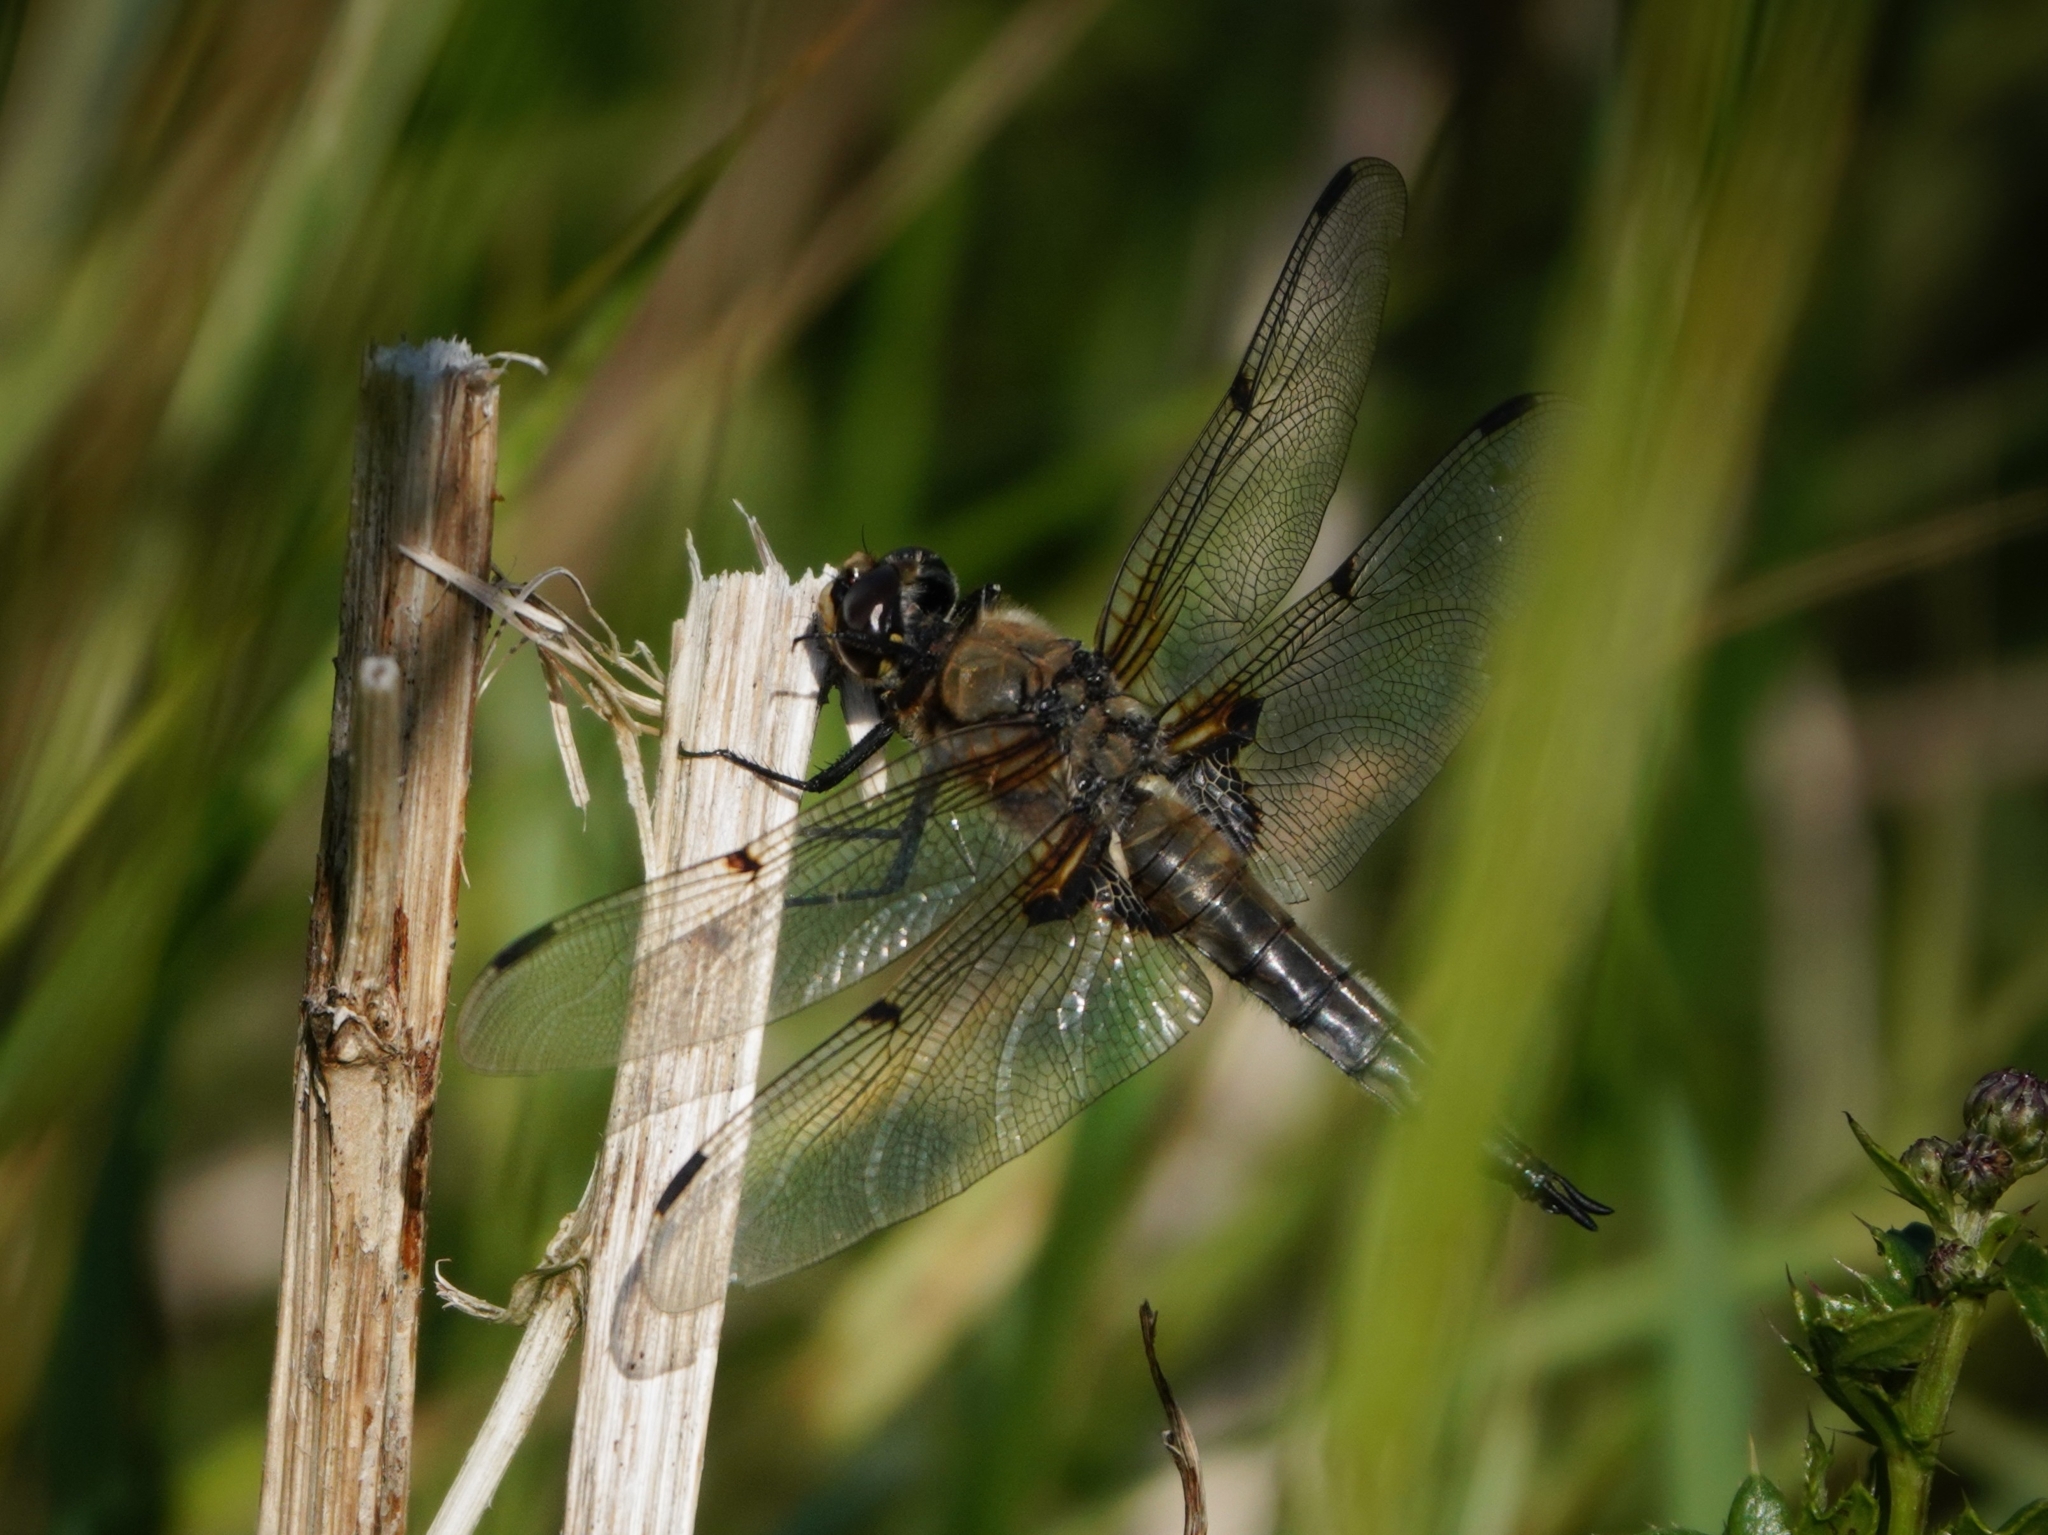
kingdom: Animalia
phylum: Arthropoda
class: Insecta
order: Odonata
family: Libellulidae
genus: Libellula
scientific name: Libellula quadrimaculata
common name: Four-spotted chaser
